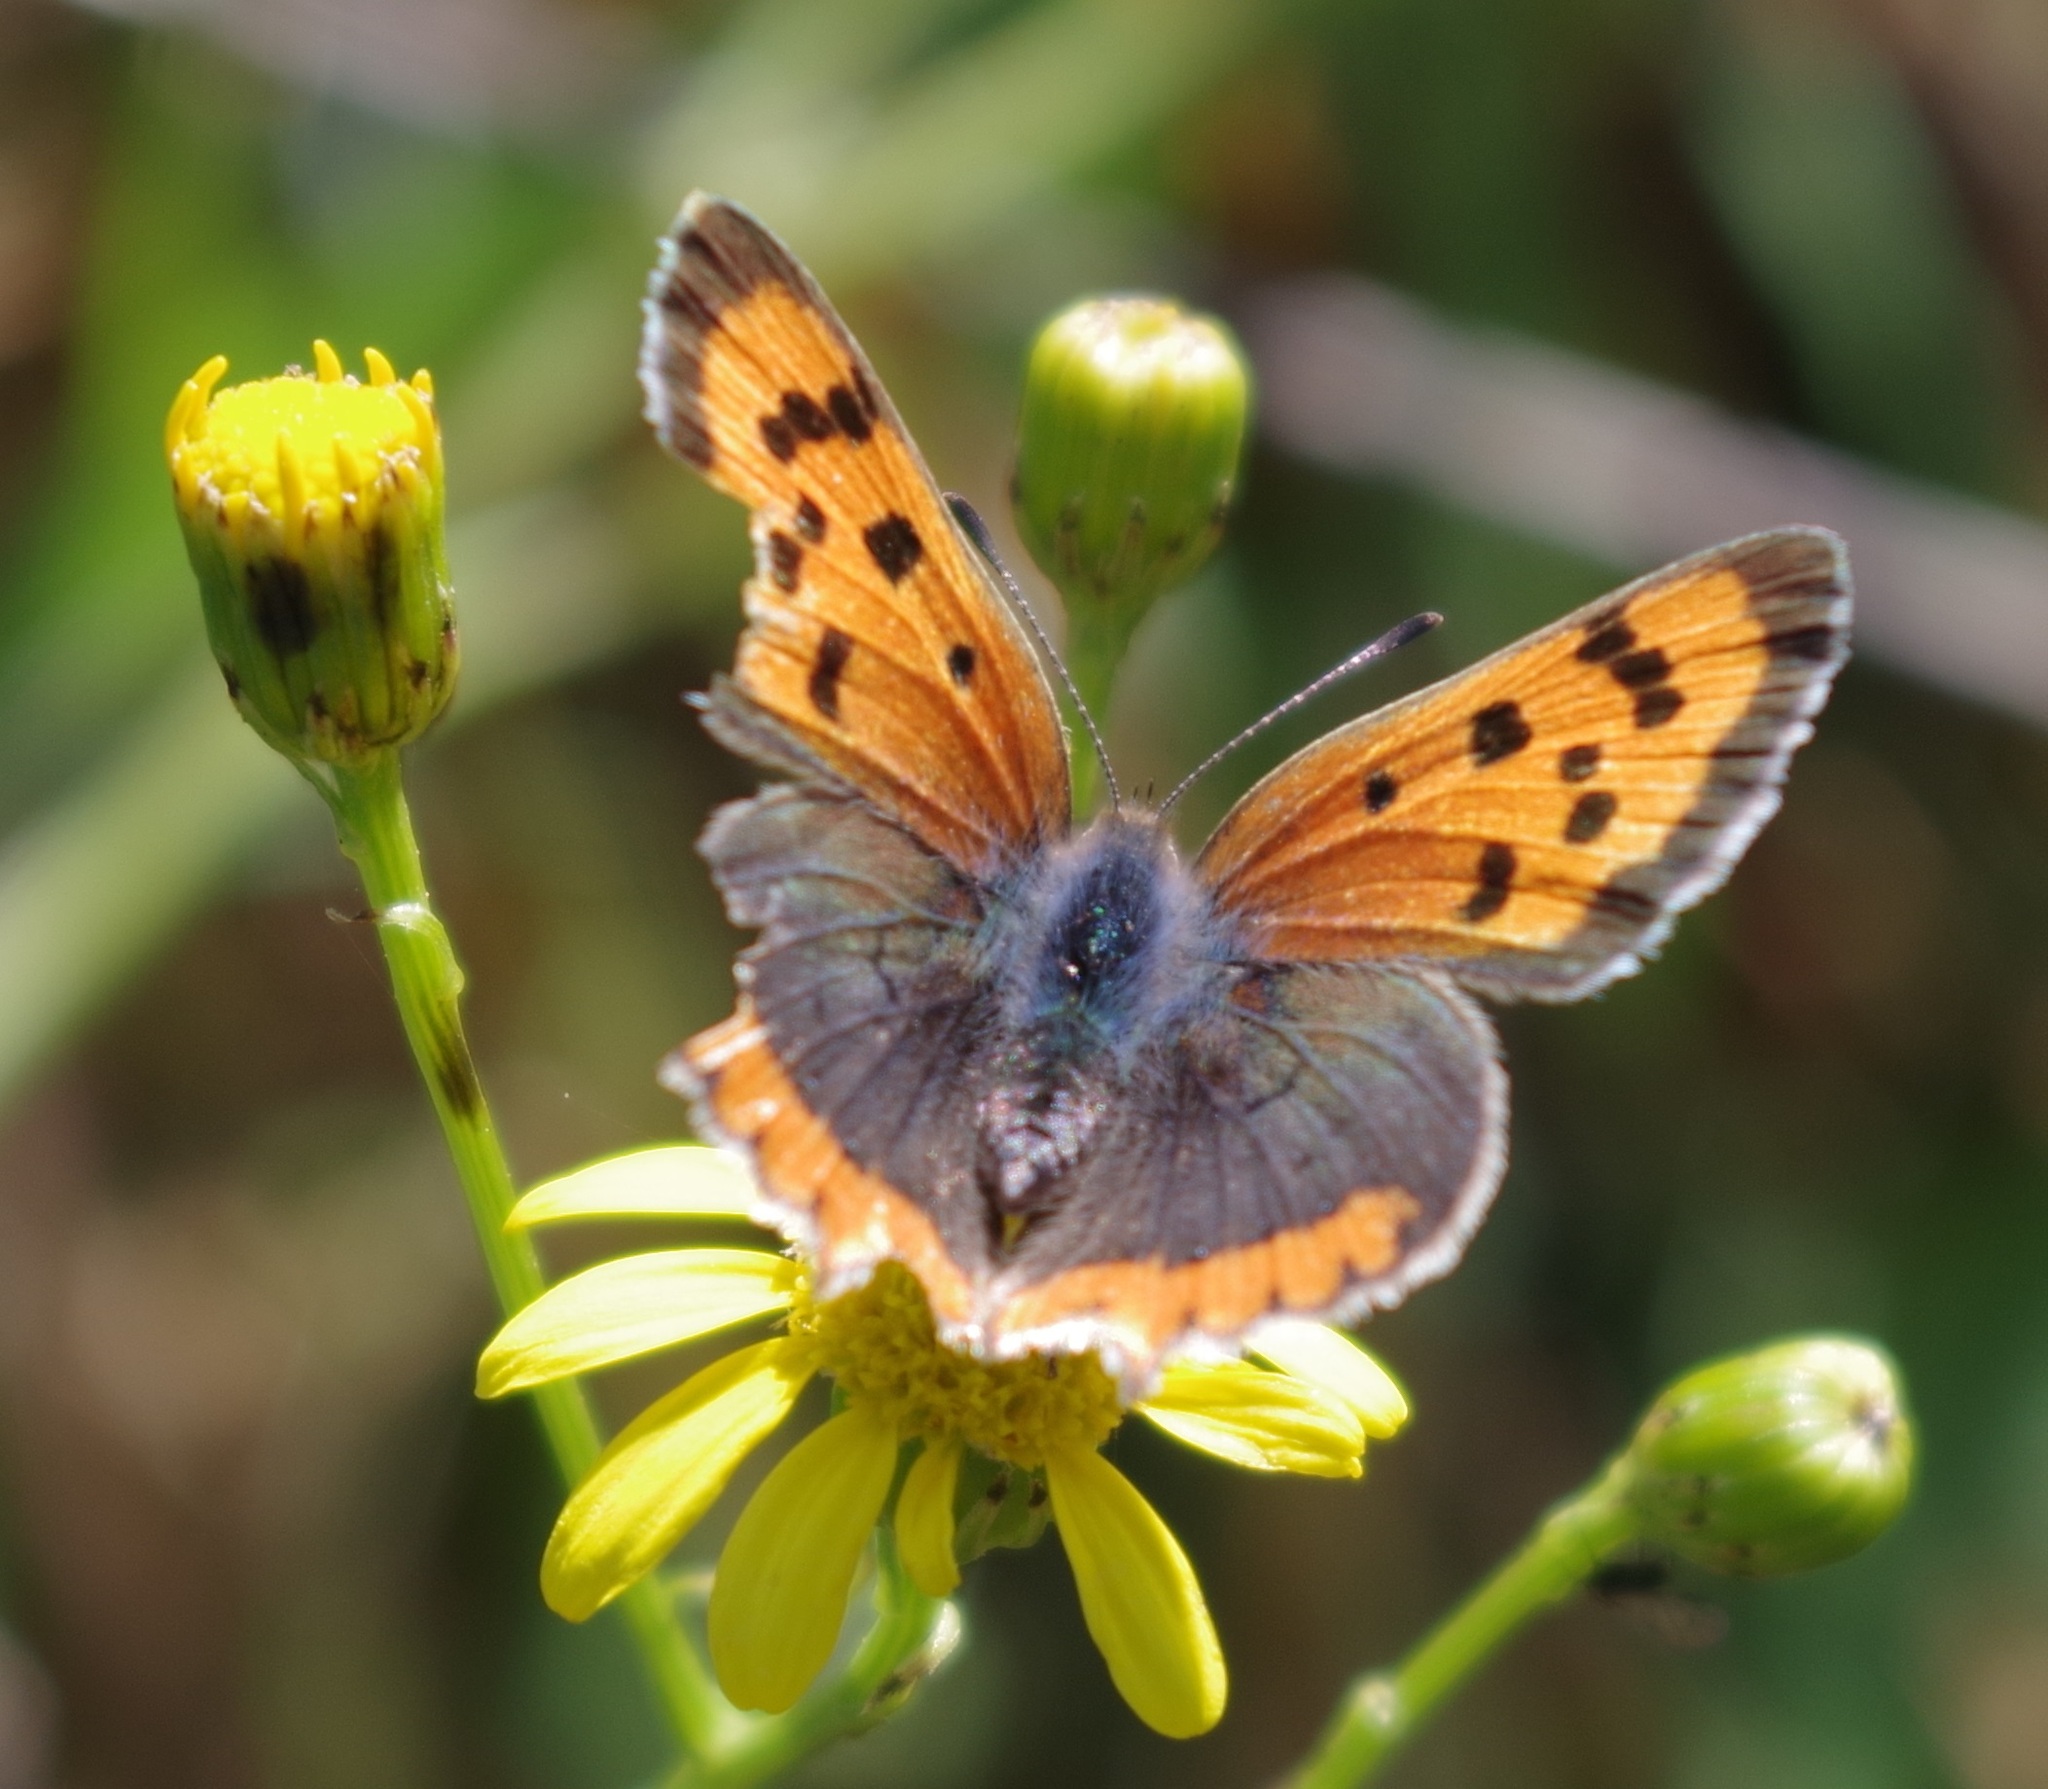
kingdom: Animalia
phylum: Arthropoda
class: Insecta
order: Lepidoptera
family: Lycaenidae
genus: Lycaena
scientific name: Lycaena phlaeas
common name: Small copper
